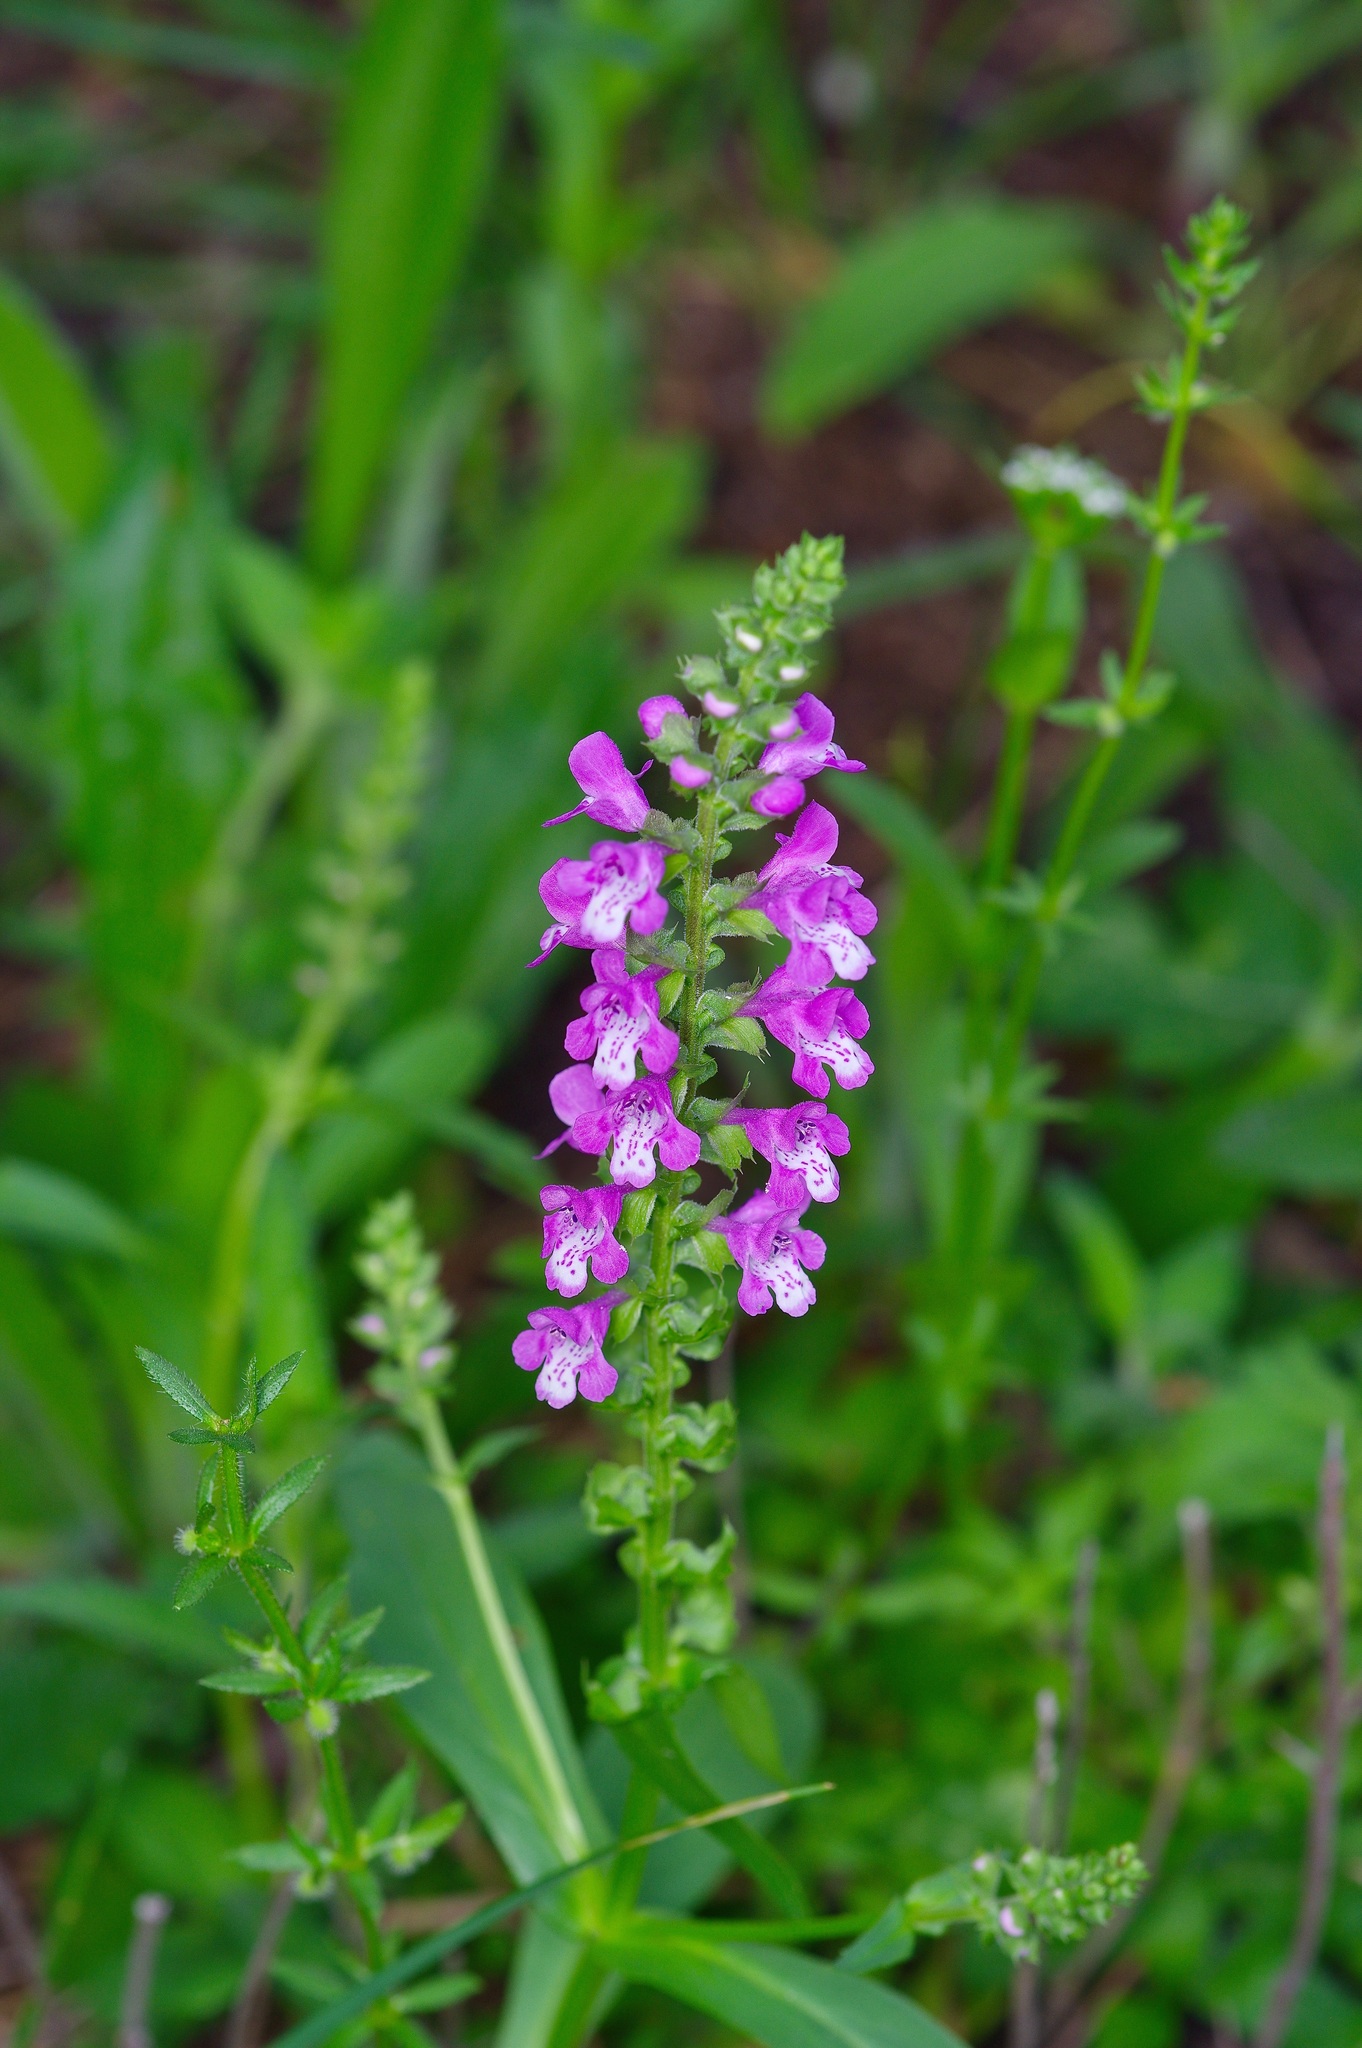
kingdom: Plantae
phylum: Tracheophyta
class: Magnoliopsida
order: Lamiales
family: Lamiaceae
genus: Warnockia
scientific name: Warnockia scutellarioides
